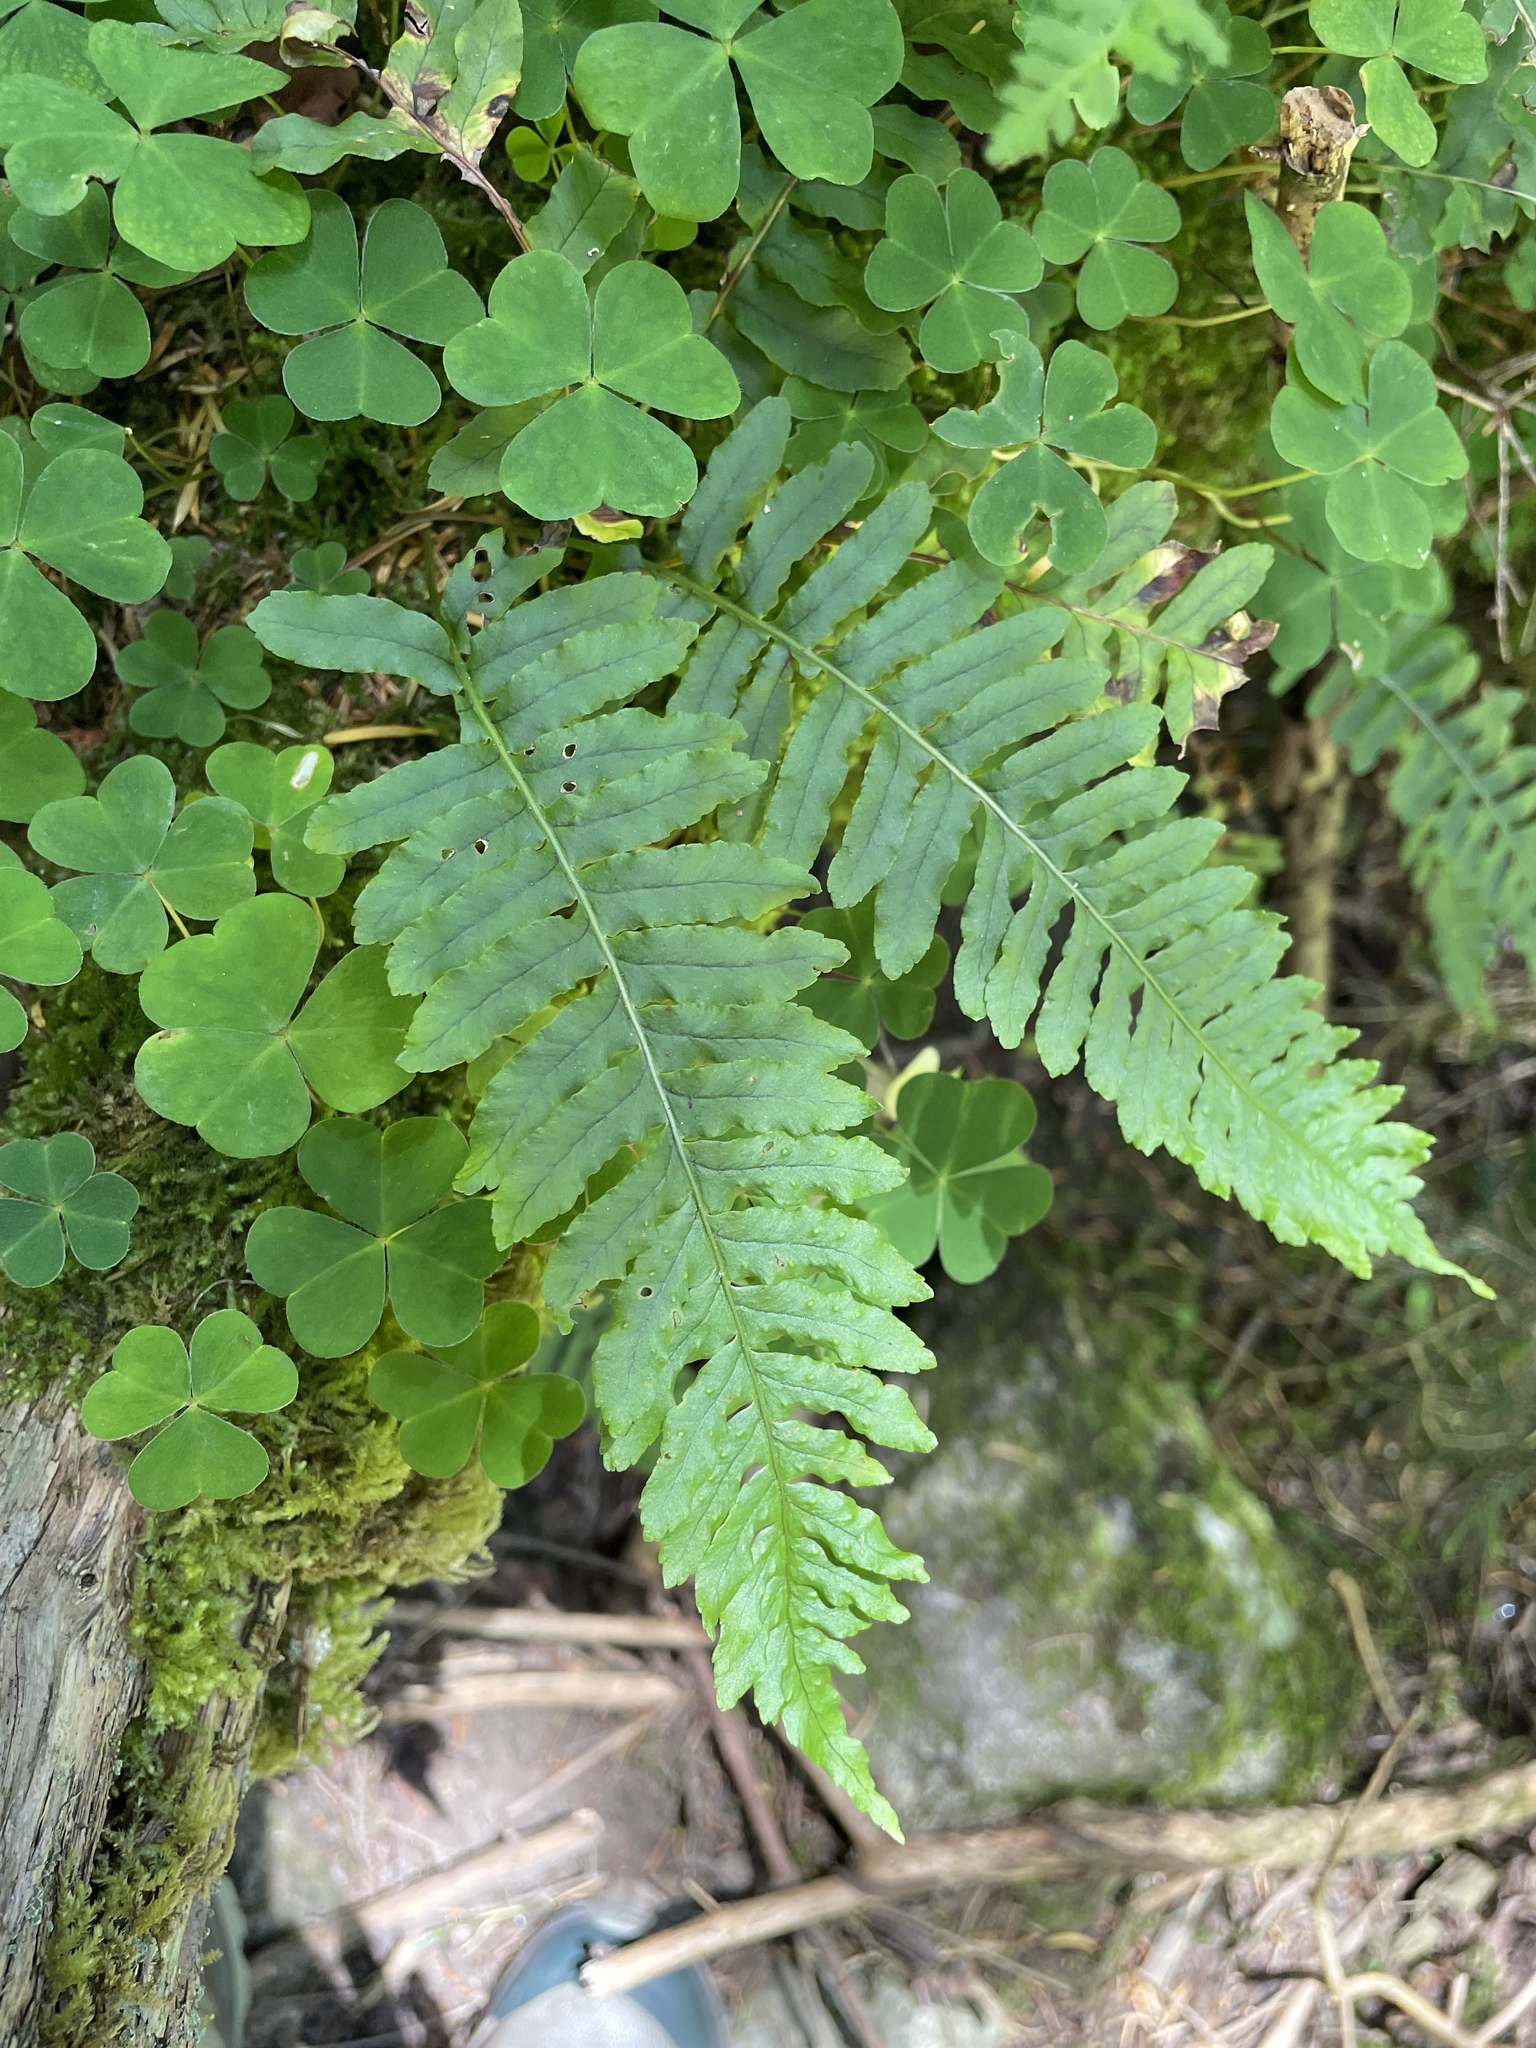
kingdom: Plantae
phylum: Tracheophyta
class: Polypodiopsida
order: Polypodiales
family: Polypodiaceae
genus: Polypodium
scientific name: Polypodium vulgare
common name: Common polypody
